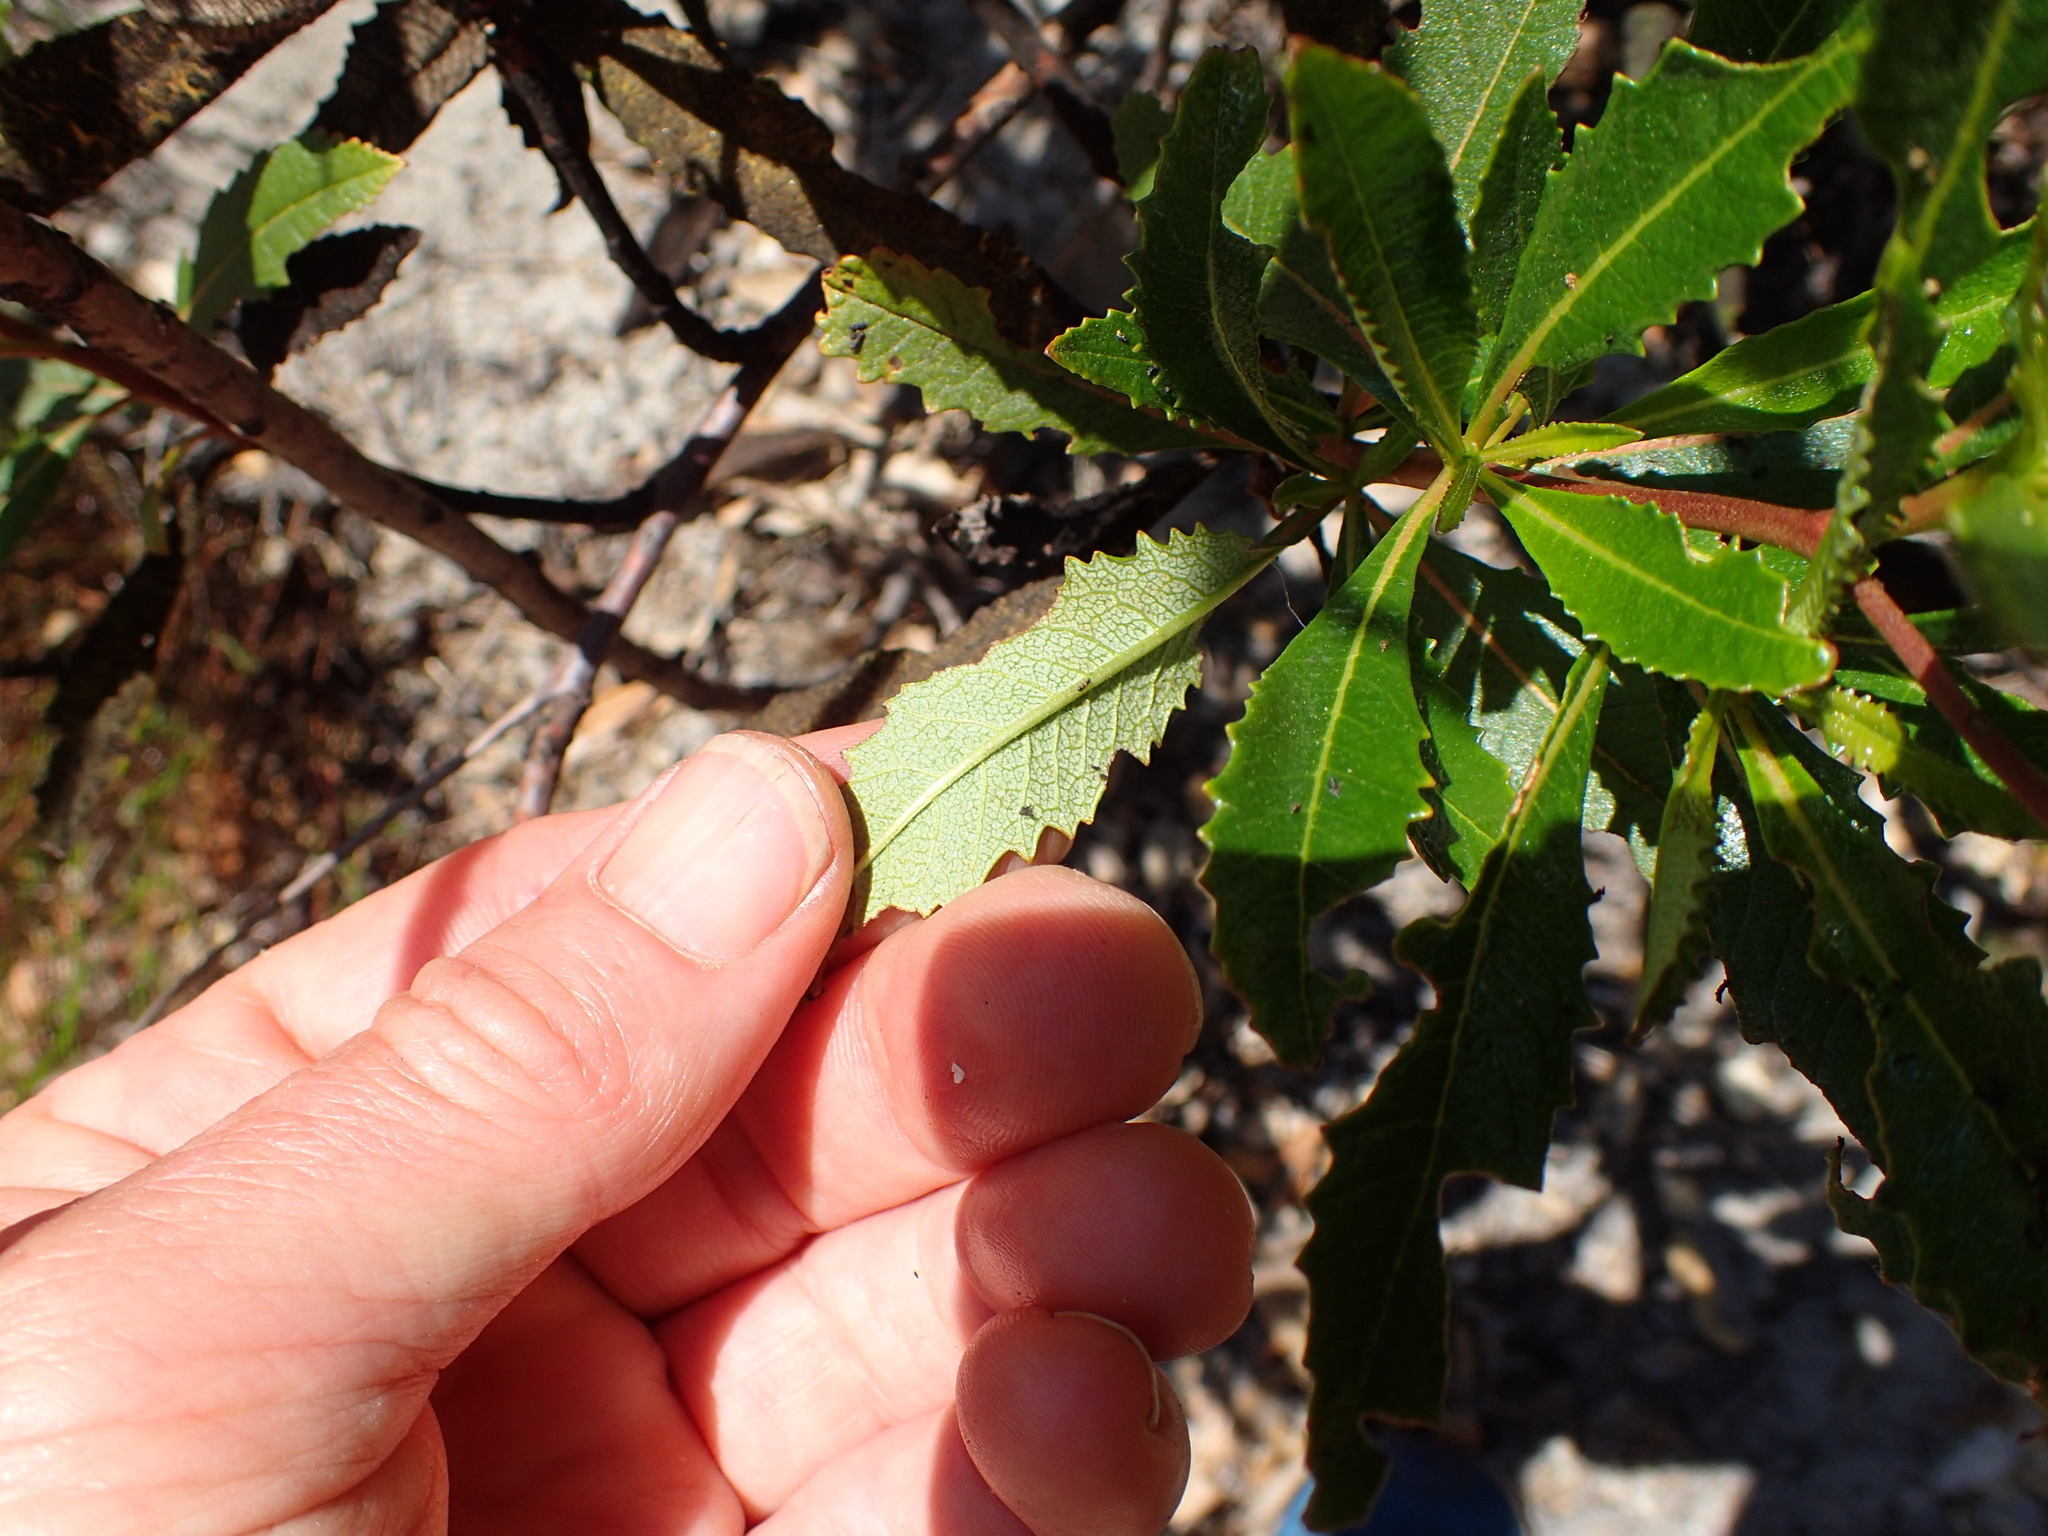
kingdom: Plantae
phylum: Tracheophyta
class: Magnoliopsida
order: Boraginales
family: Namaceae
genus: Eriodictyon
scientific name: Eriodictyon californicum
